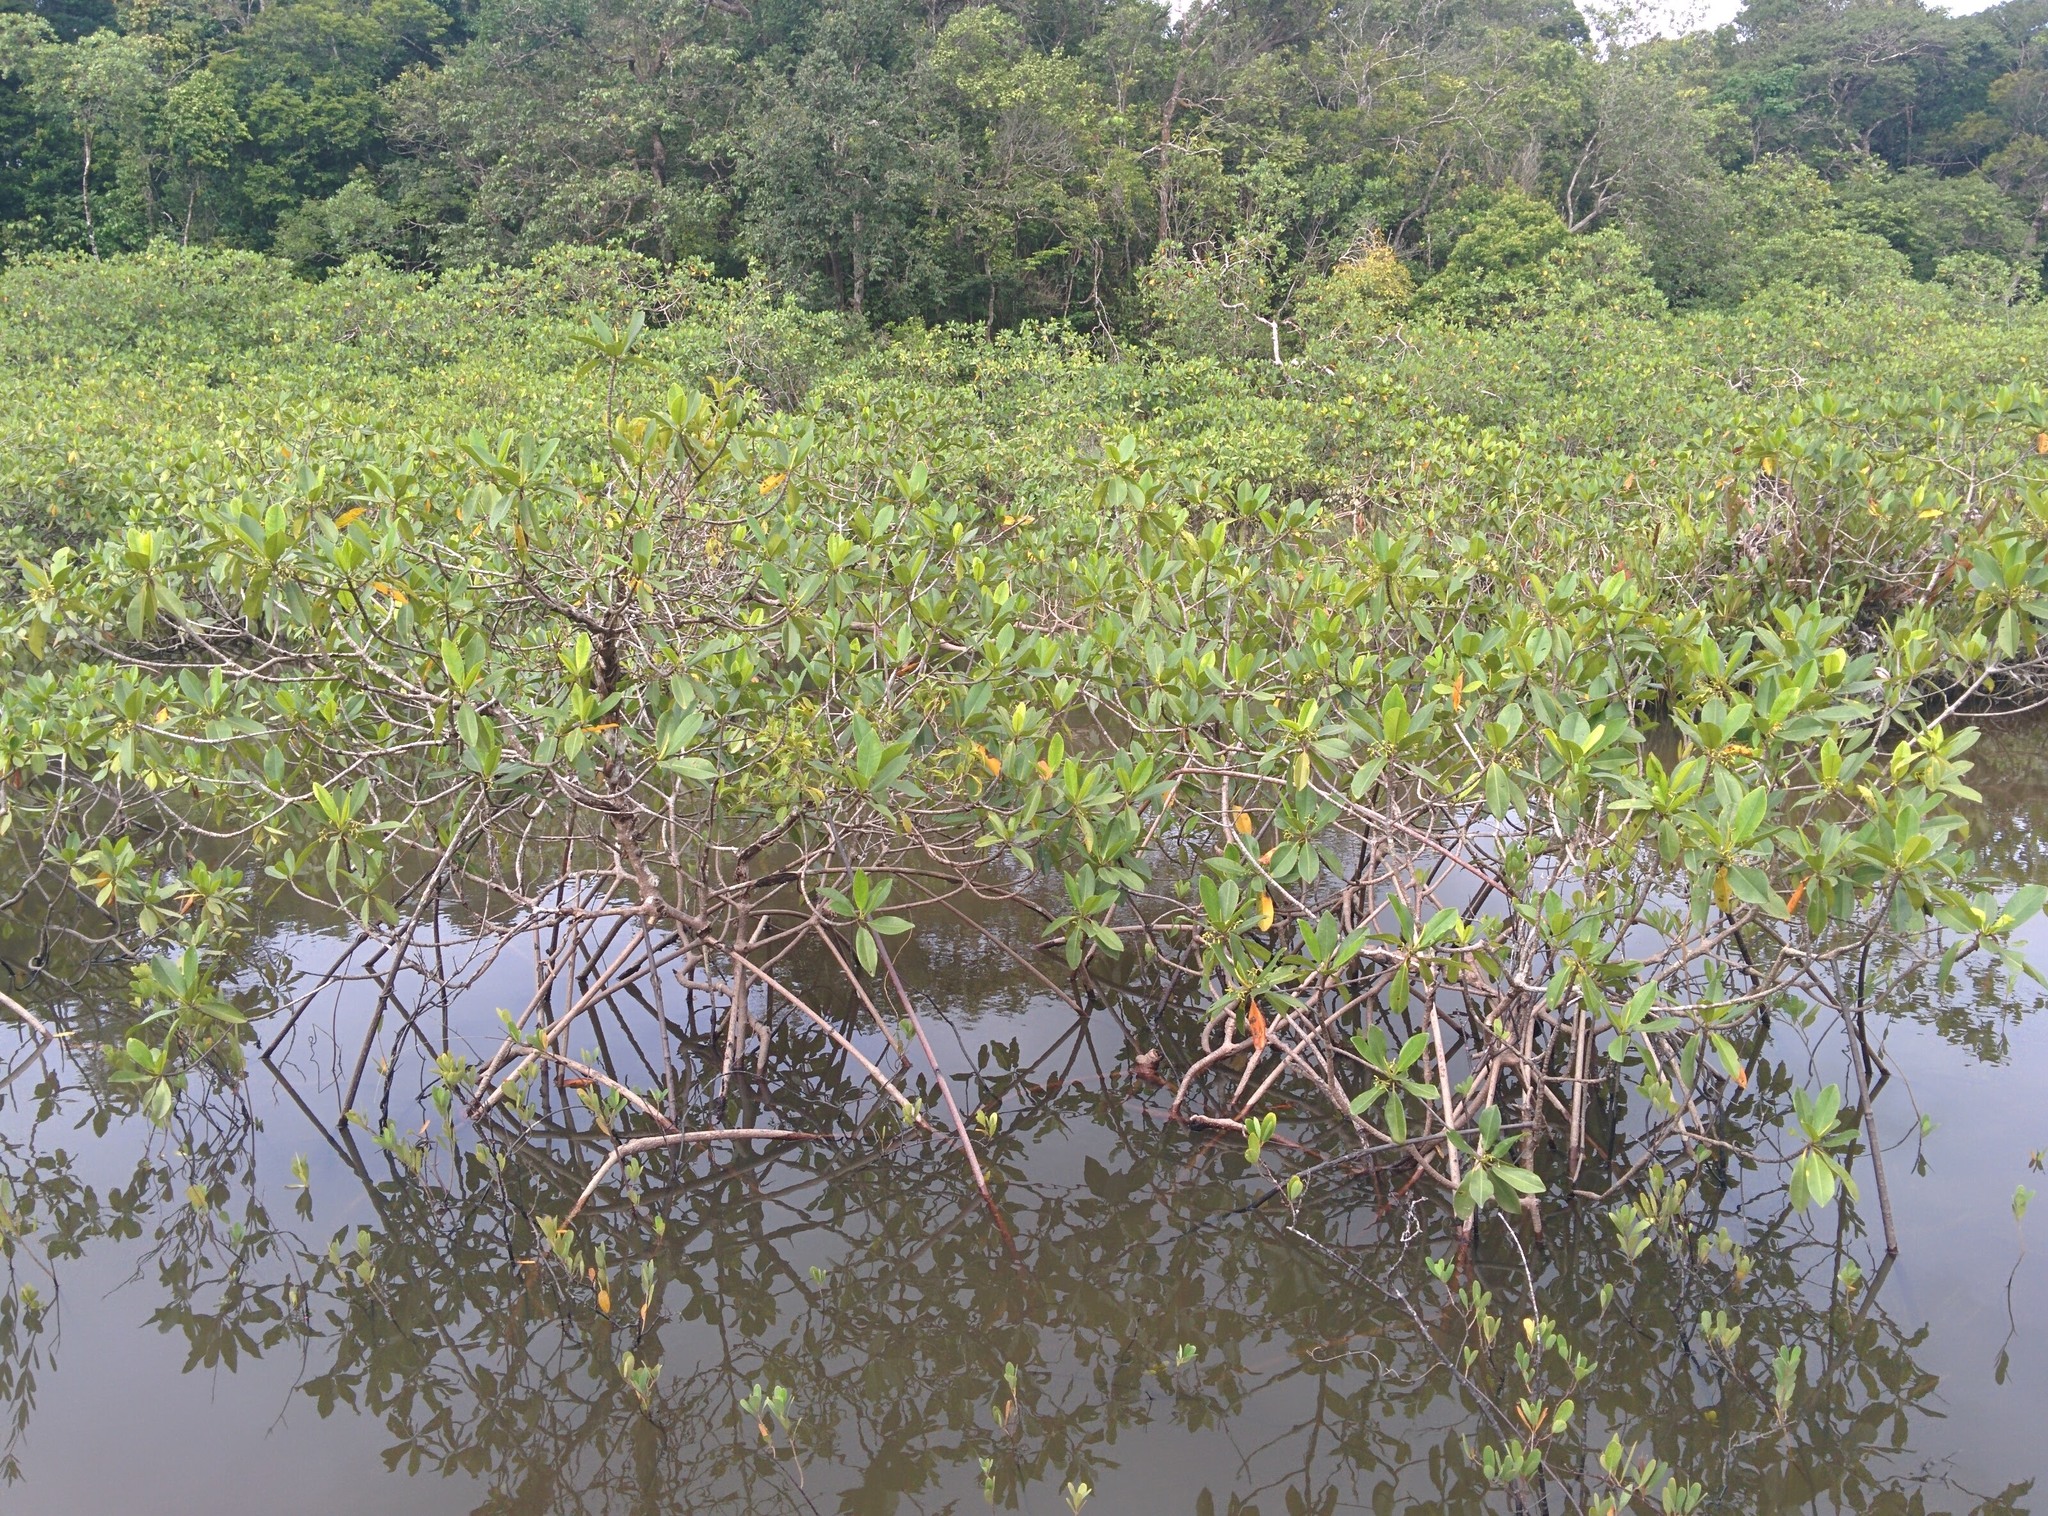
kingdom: Plantae
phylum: Tracheophyta
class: Magnoliopsida
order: Malpighiales
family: Rhizophoraceae
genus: Rhizophora
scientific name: Rhizophora mangle
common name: Red mangrove
